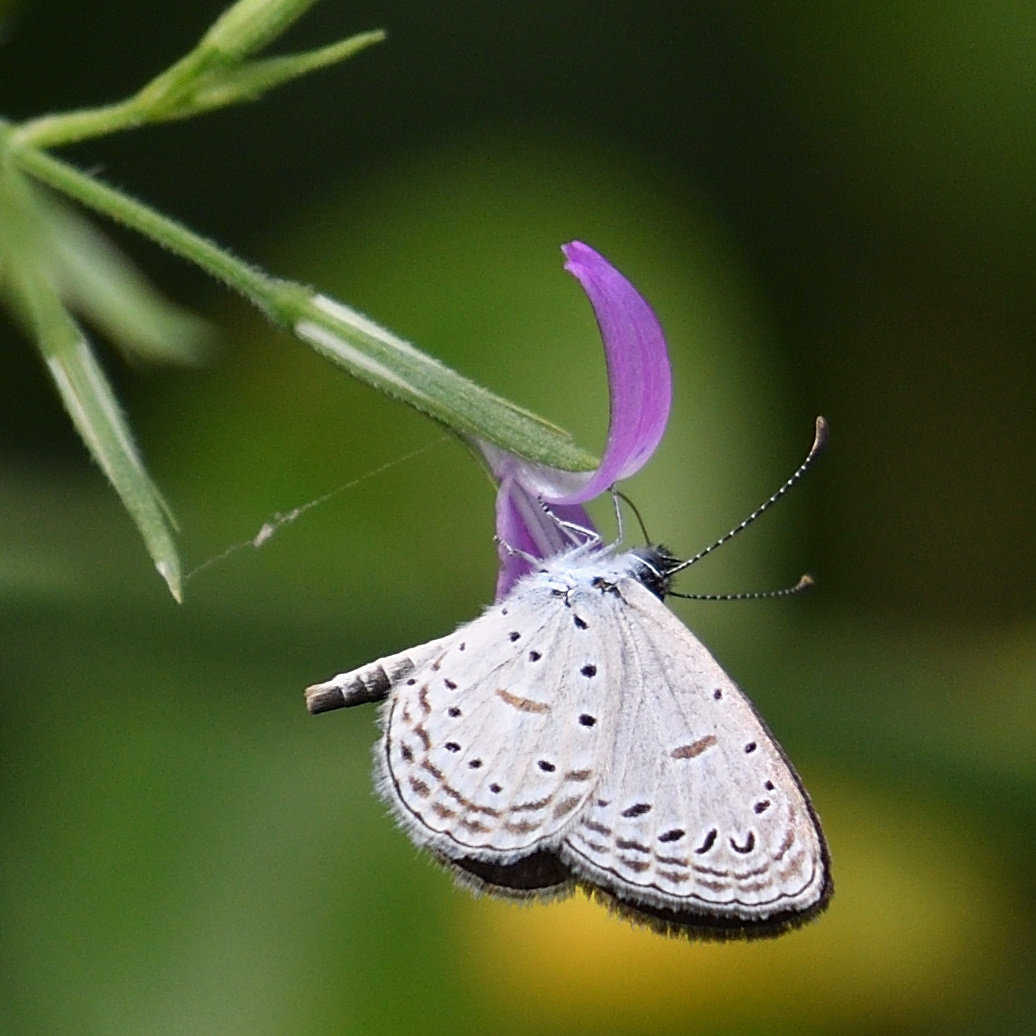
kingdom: Animalia
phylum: Arthropoda
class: Insecta
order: Lepidoptera
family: Lycaenidae
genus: Zizula
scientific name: Zizula hylax
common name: Gaika blue
